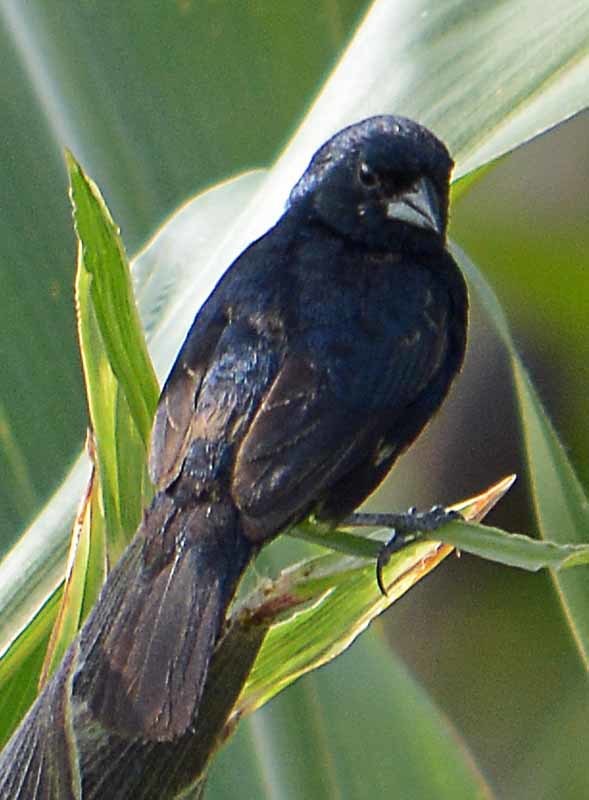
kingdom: Animalia
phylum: Chordata
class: Aves
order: Passeriformes
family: Thraupidae
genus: Volatinia
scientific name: Volatinia jacarina
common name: Blue-black grassquit
